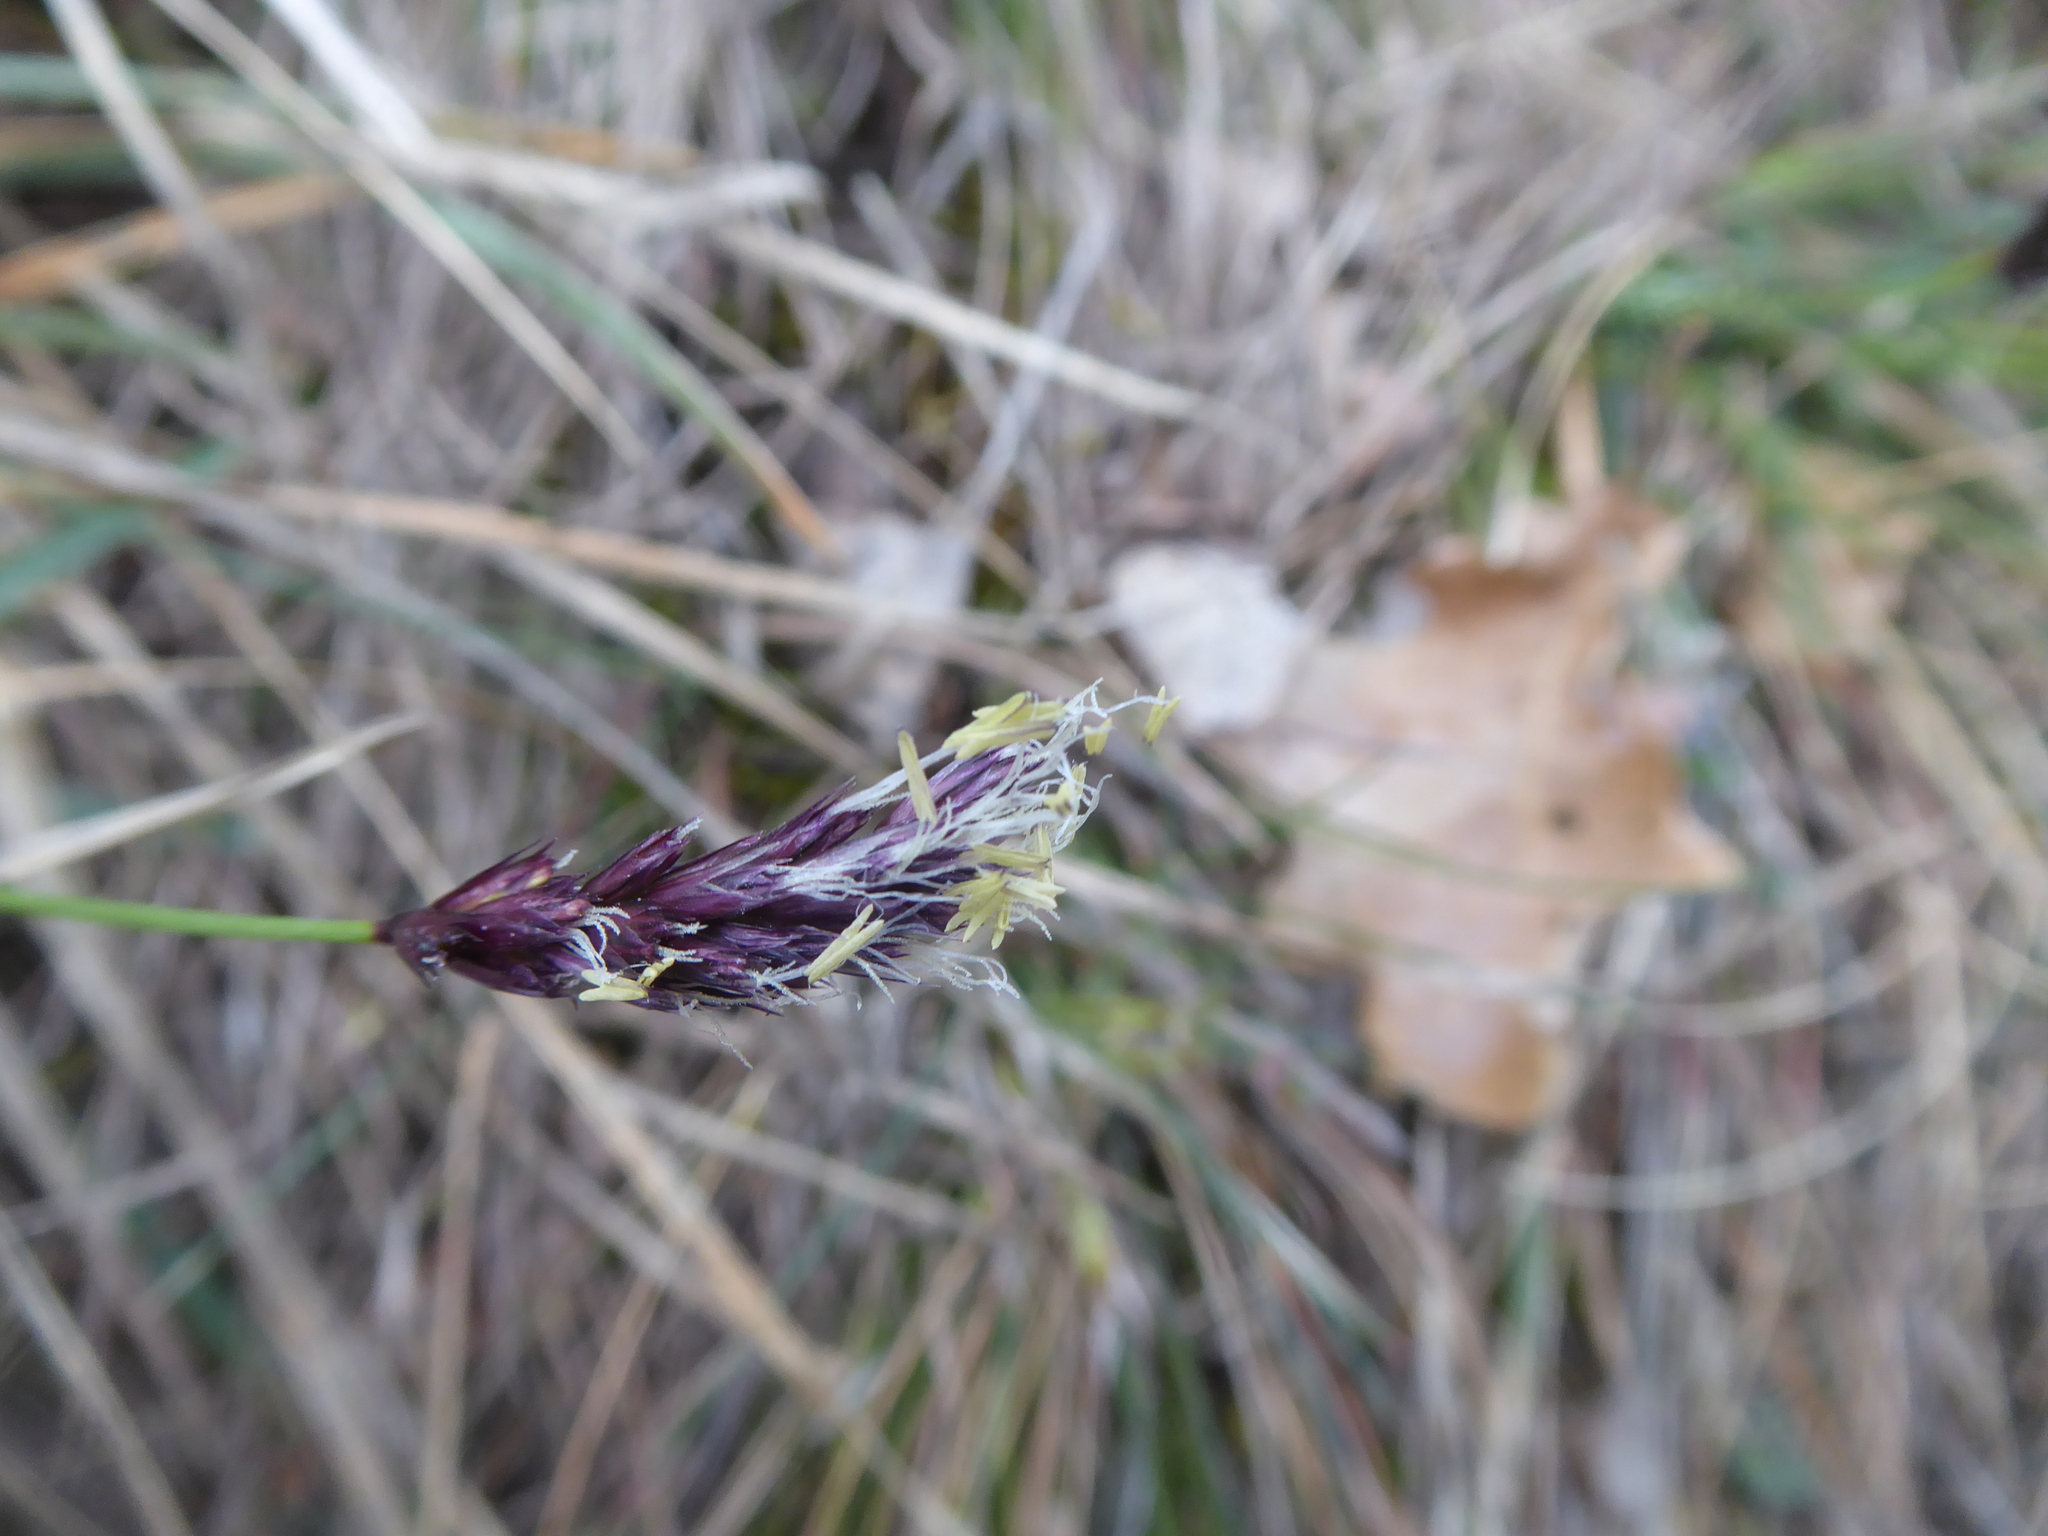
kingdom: Plantae
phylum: Tracheophyta
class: Liliopsida
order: Poales
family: Poaceae
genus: Sesleria
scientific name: Sesleria caerulea
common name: Blue moor-grass
